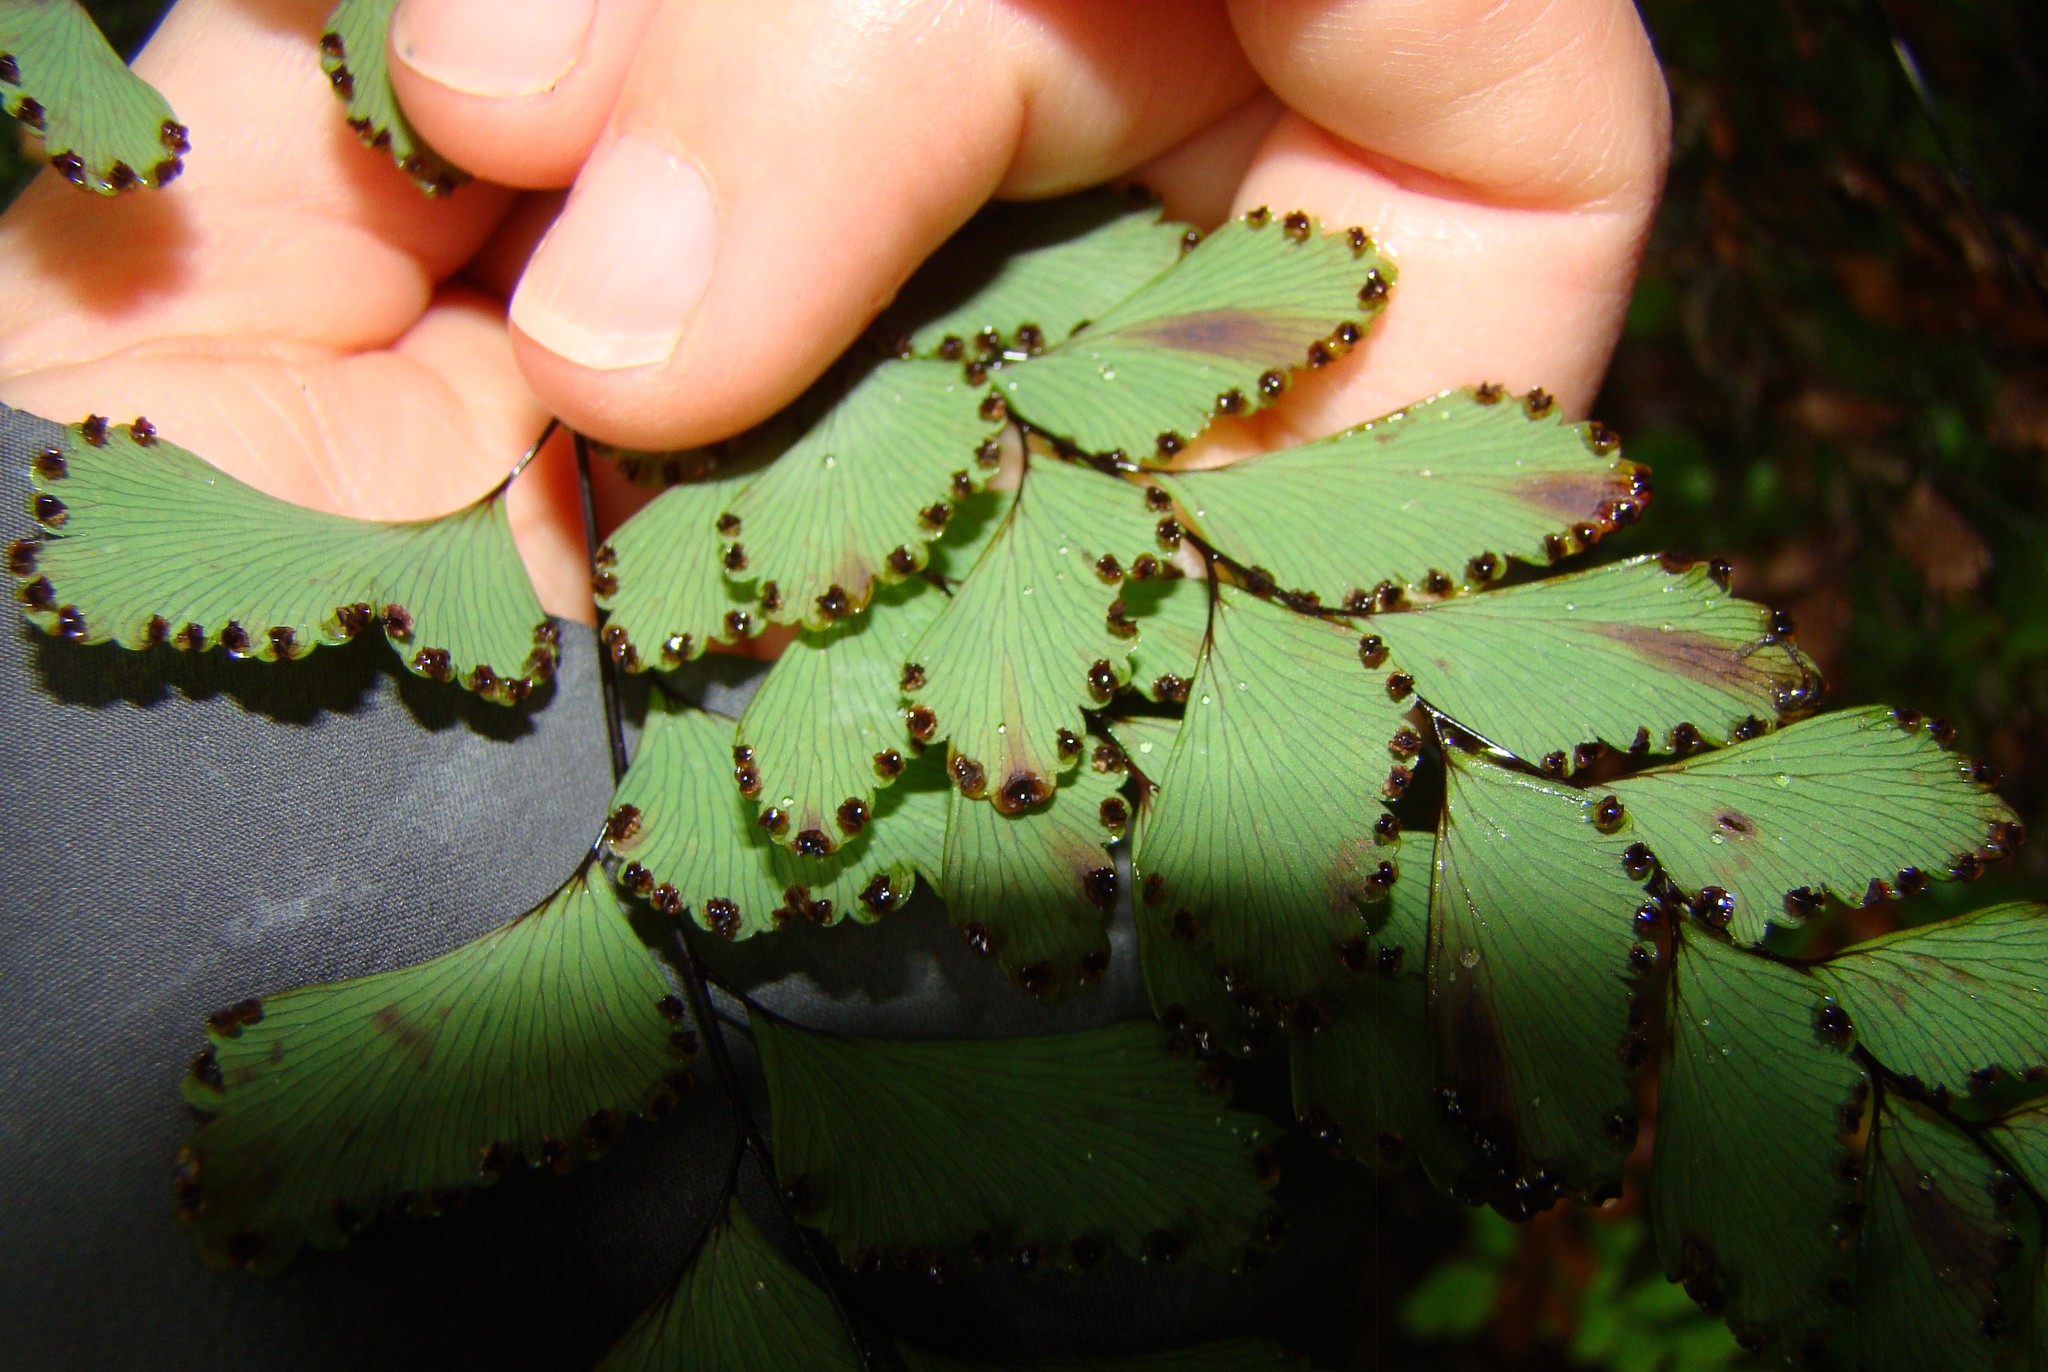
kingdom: Plantae
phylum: Tracheophyta
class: Polypodiopsida
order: Polypodiales
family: Pteridaceae
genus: Adiantum
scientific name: Adiantum cunninghamii
